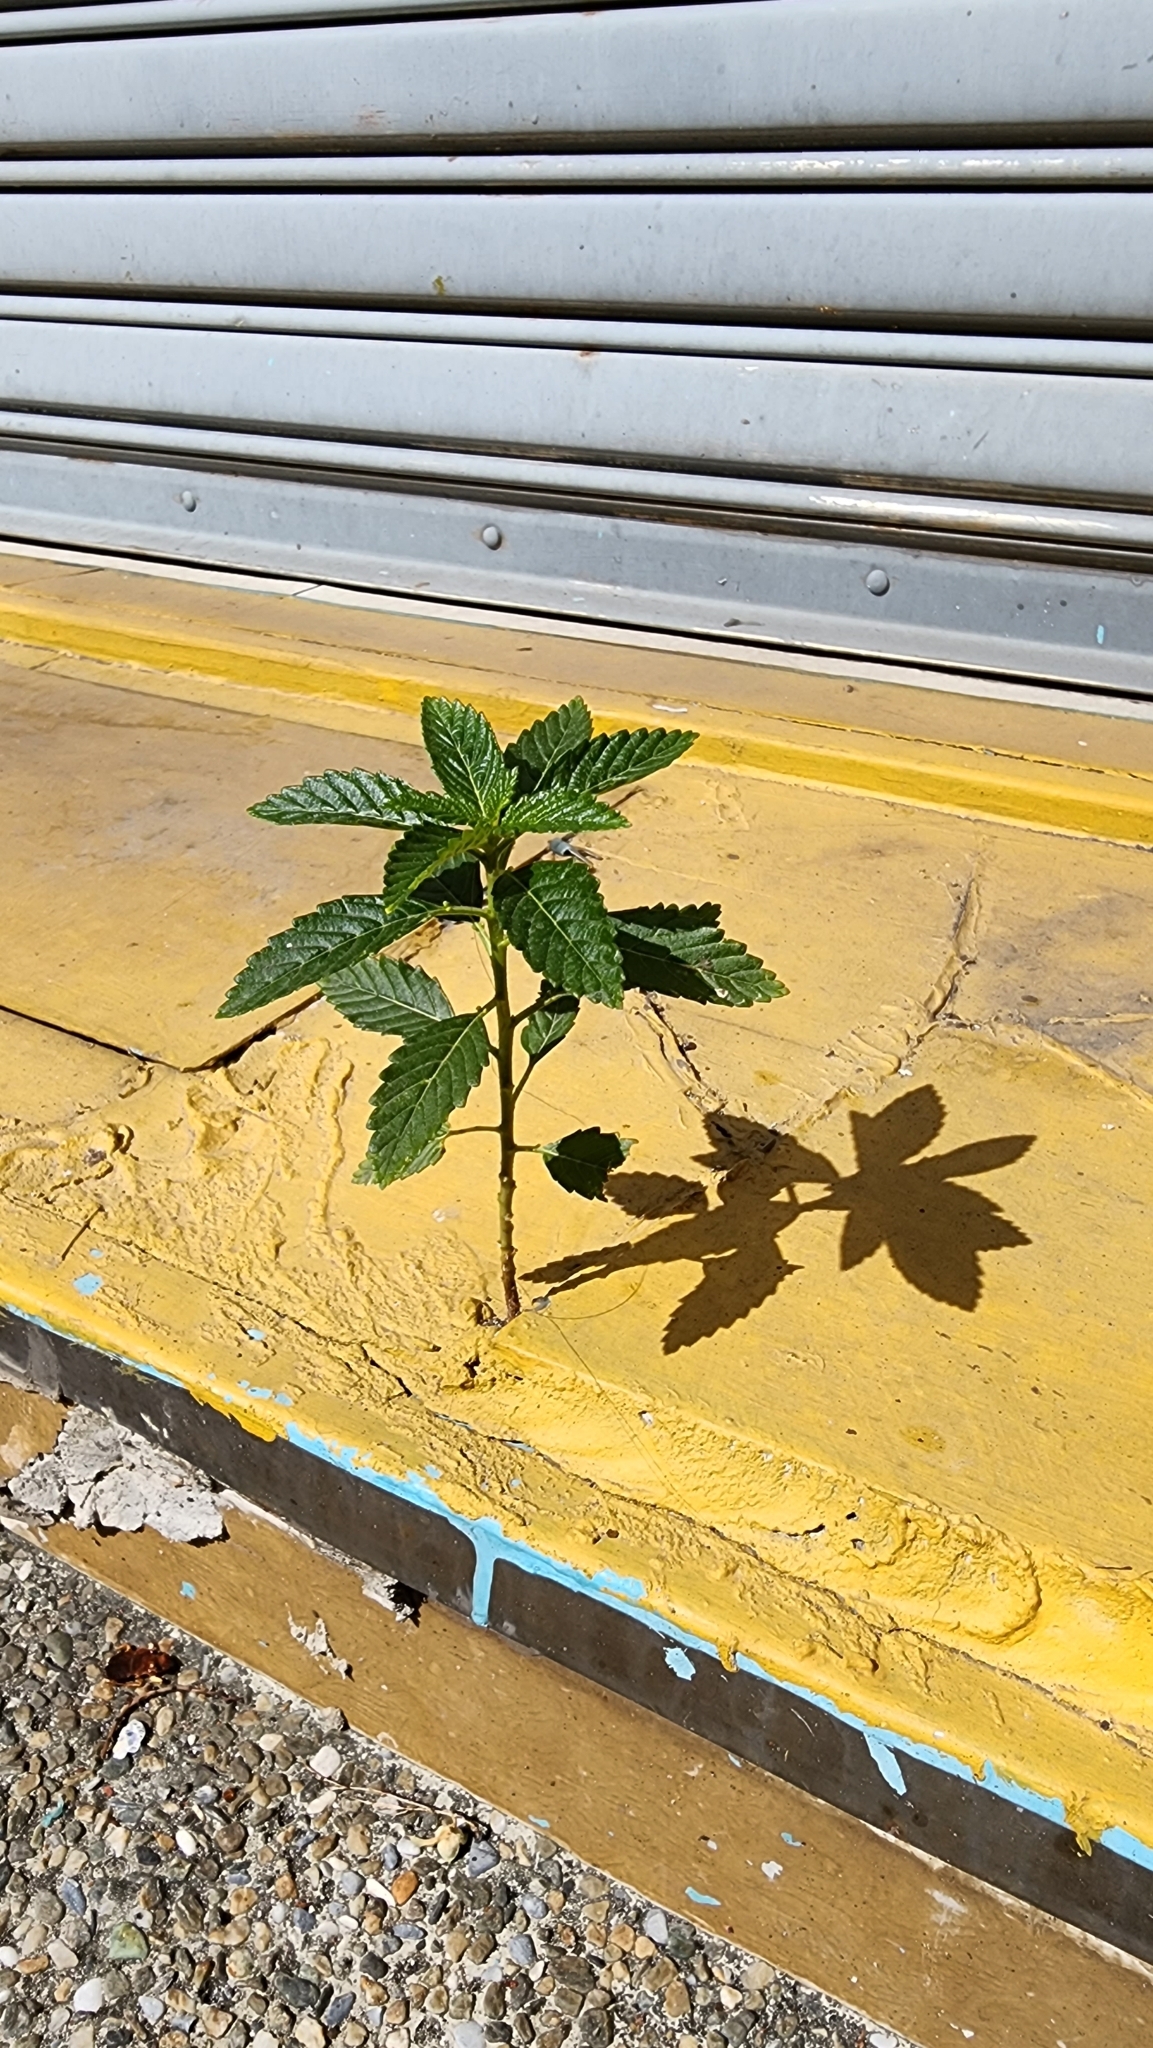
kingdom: Plantae
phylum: Tracheophyta
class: Magnoliopsida
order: Malpighiales
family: Turneraceae
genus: Turnera
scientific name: Turnera ulmifolia
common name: Ramgoat dashalong
